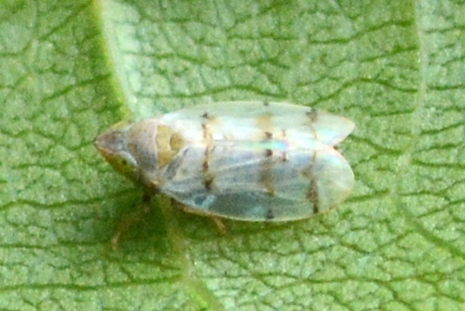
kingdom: Animalia
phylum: Arthropoda
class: Insecta
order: Hemiptera
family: Cicadellidae
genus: Japananus
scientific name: Japananus hyalinus
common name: The japanese maple leafhopper
